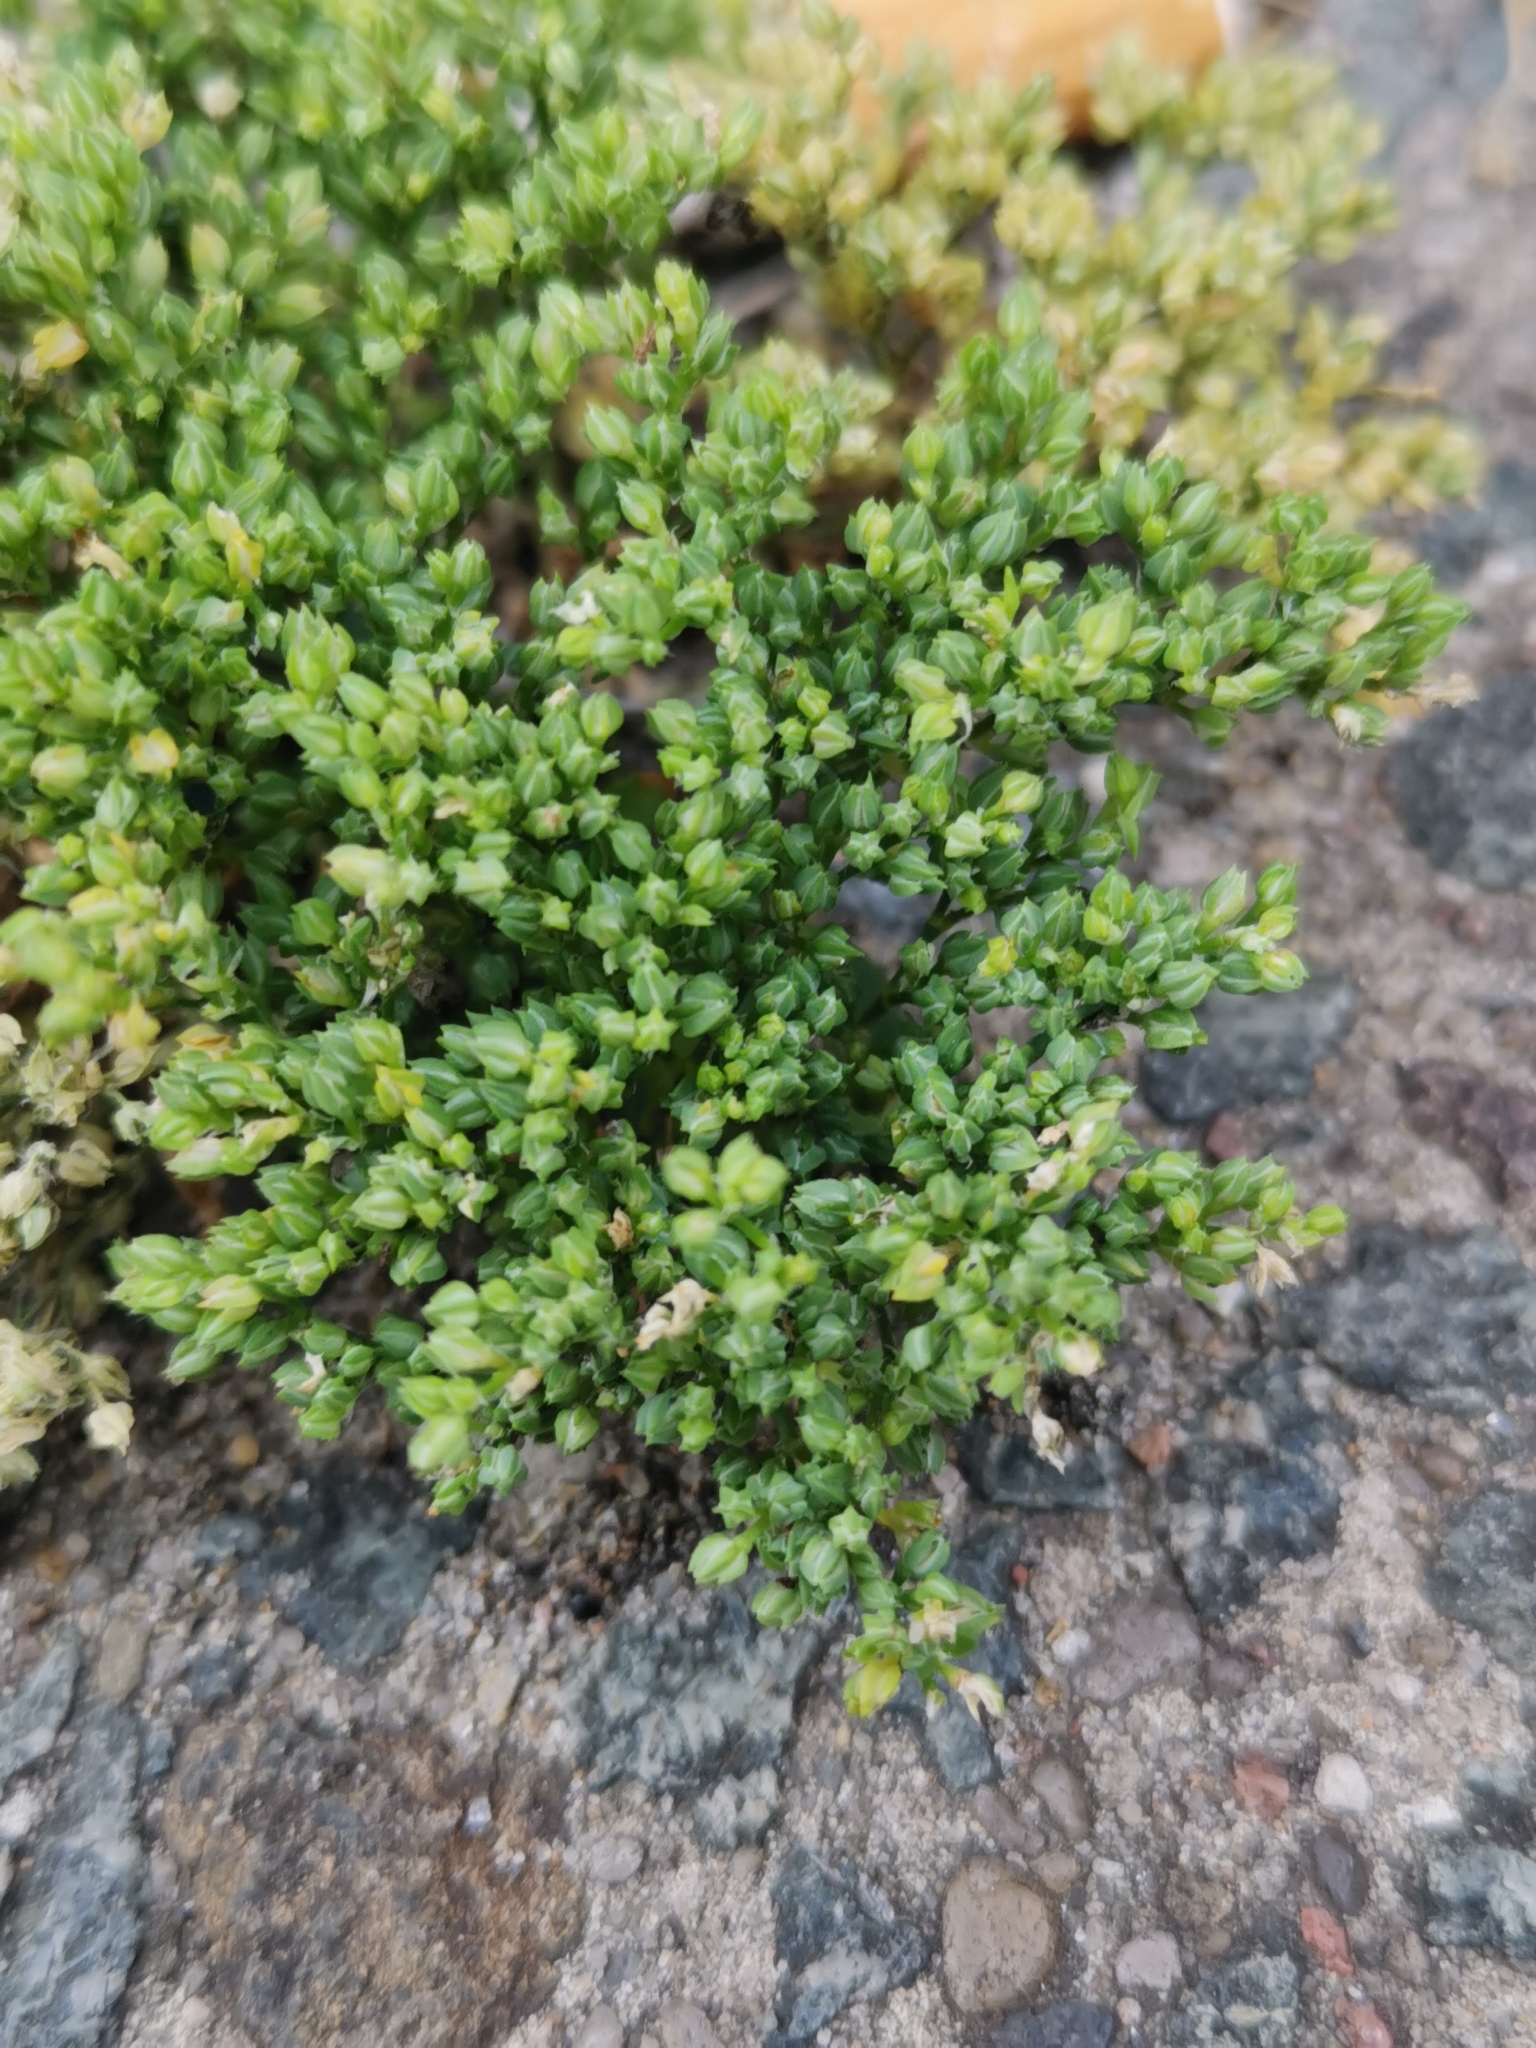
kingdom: Plantae
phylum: Tracheophyta
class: Magnoliopsida
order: Caryophyllales
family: Caryophyllaceae
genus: Polycarpon
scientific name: Polycarpon tetraphyllum
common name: Four-leaved all-seed
